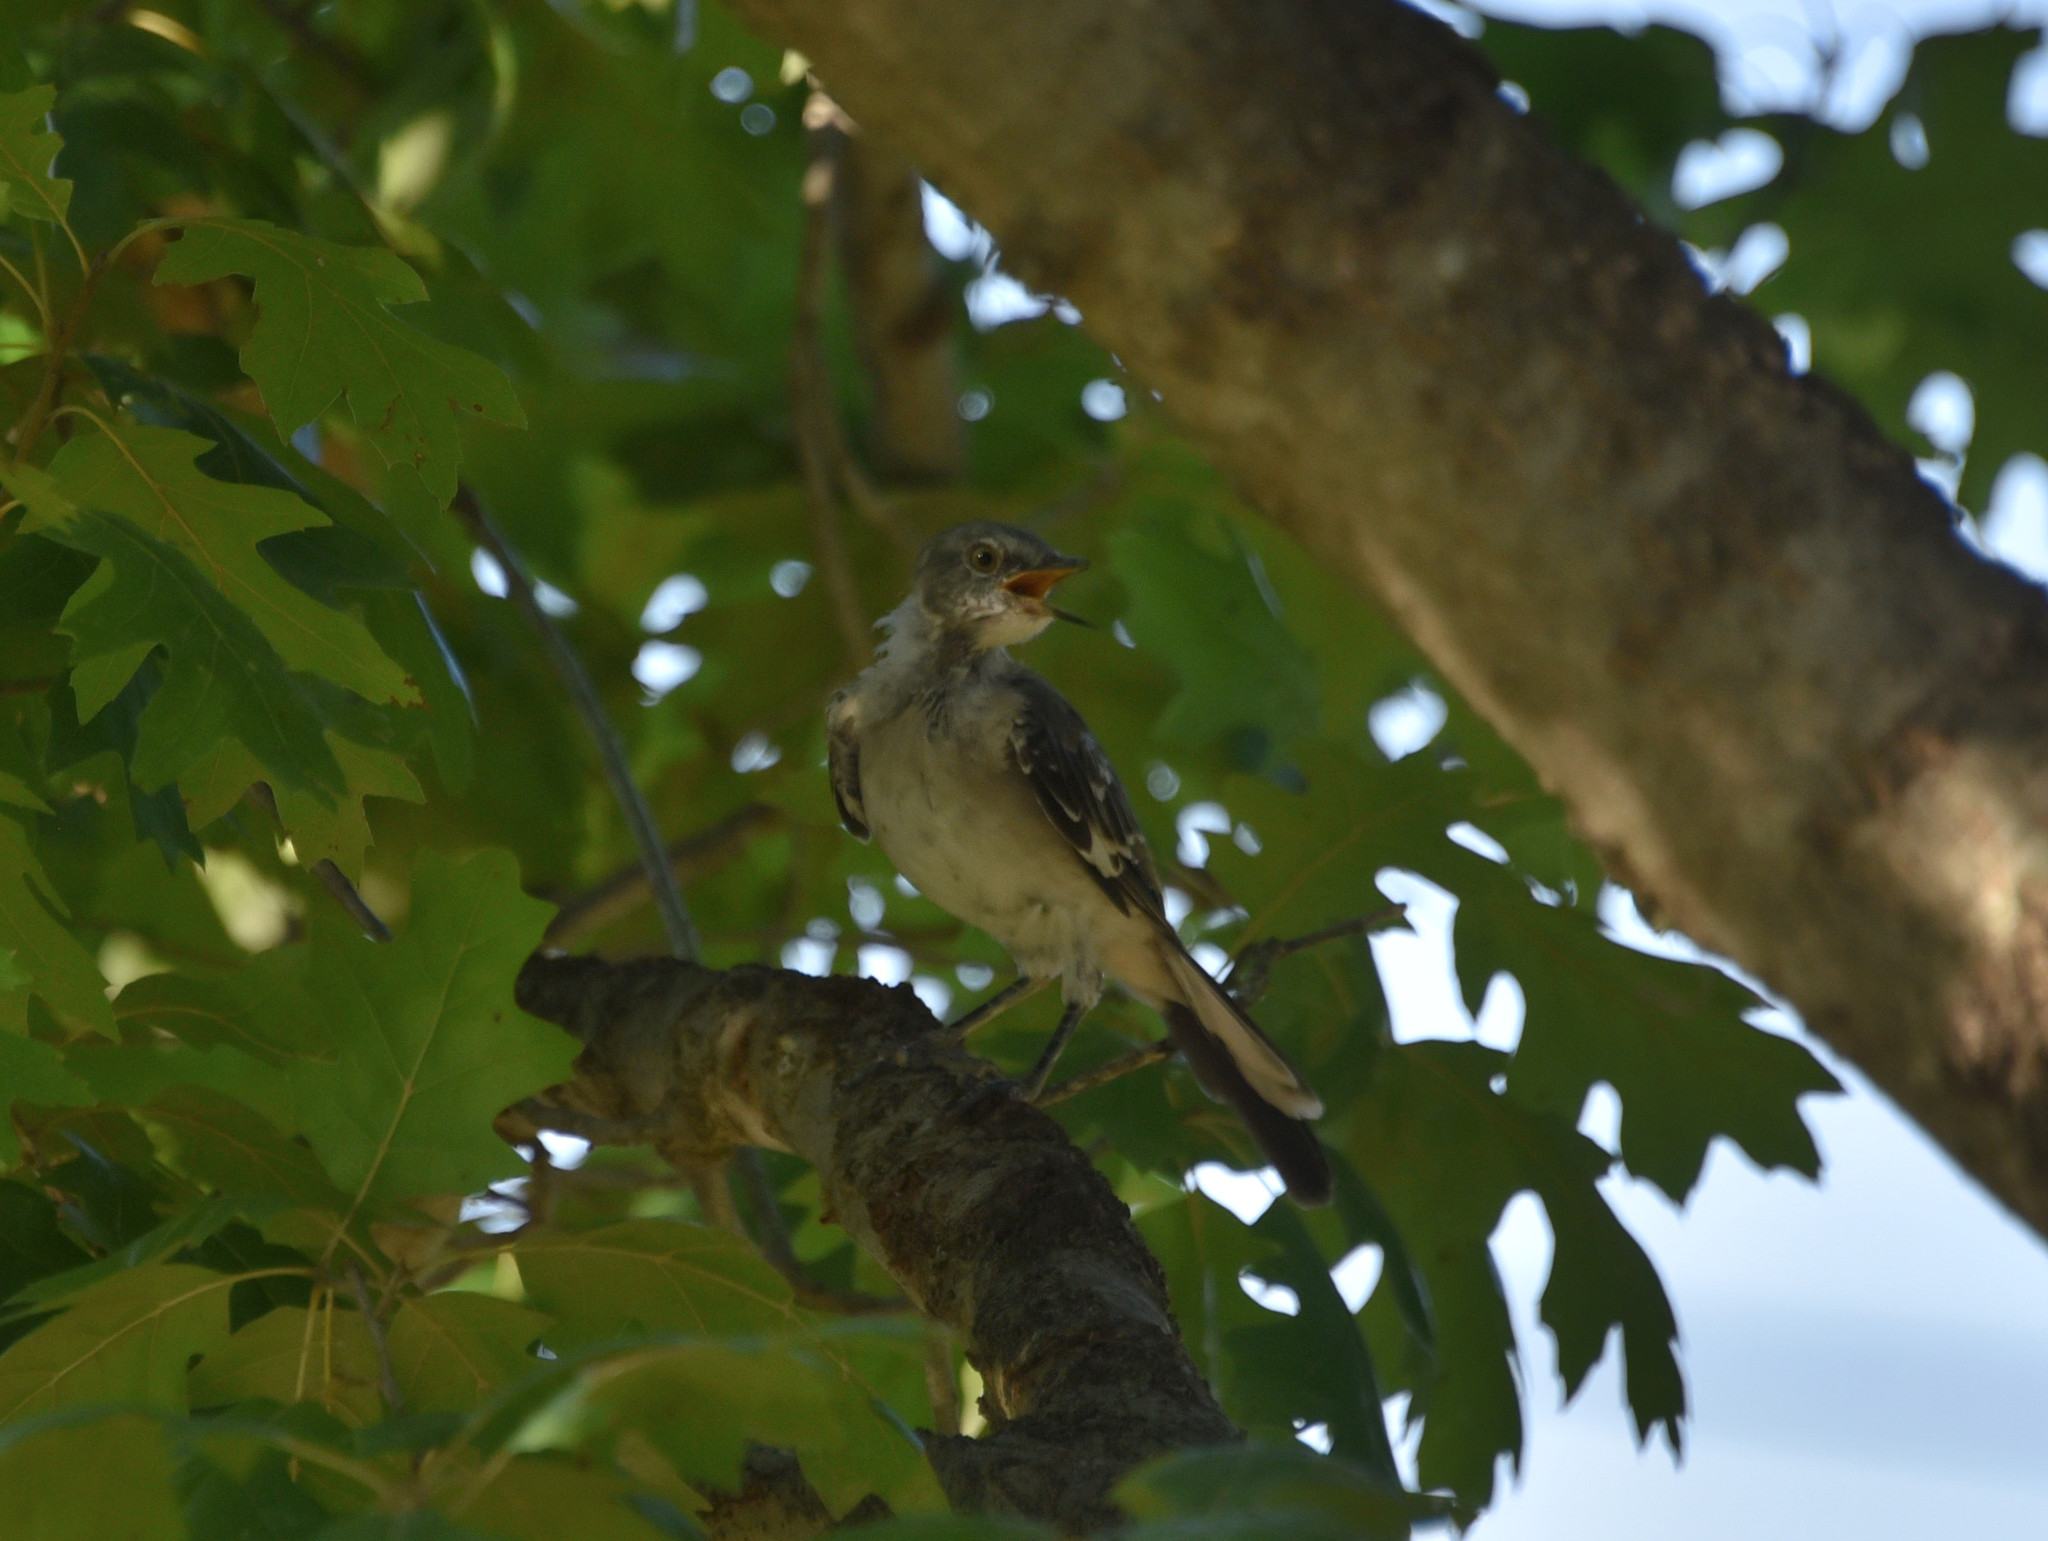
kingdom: Animalia
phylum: Chordata
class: Aves
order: Passeriformes
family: Mimidae
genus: Mimus
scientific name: Mimus polyglottos
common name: Northern mockingbird
